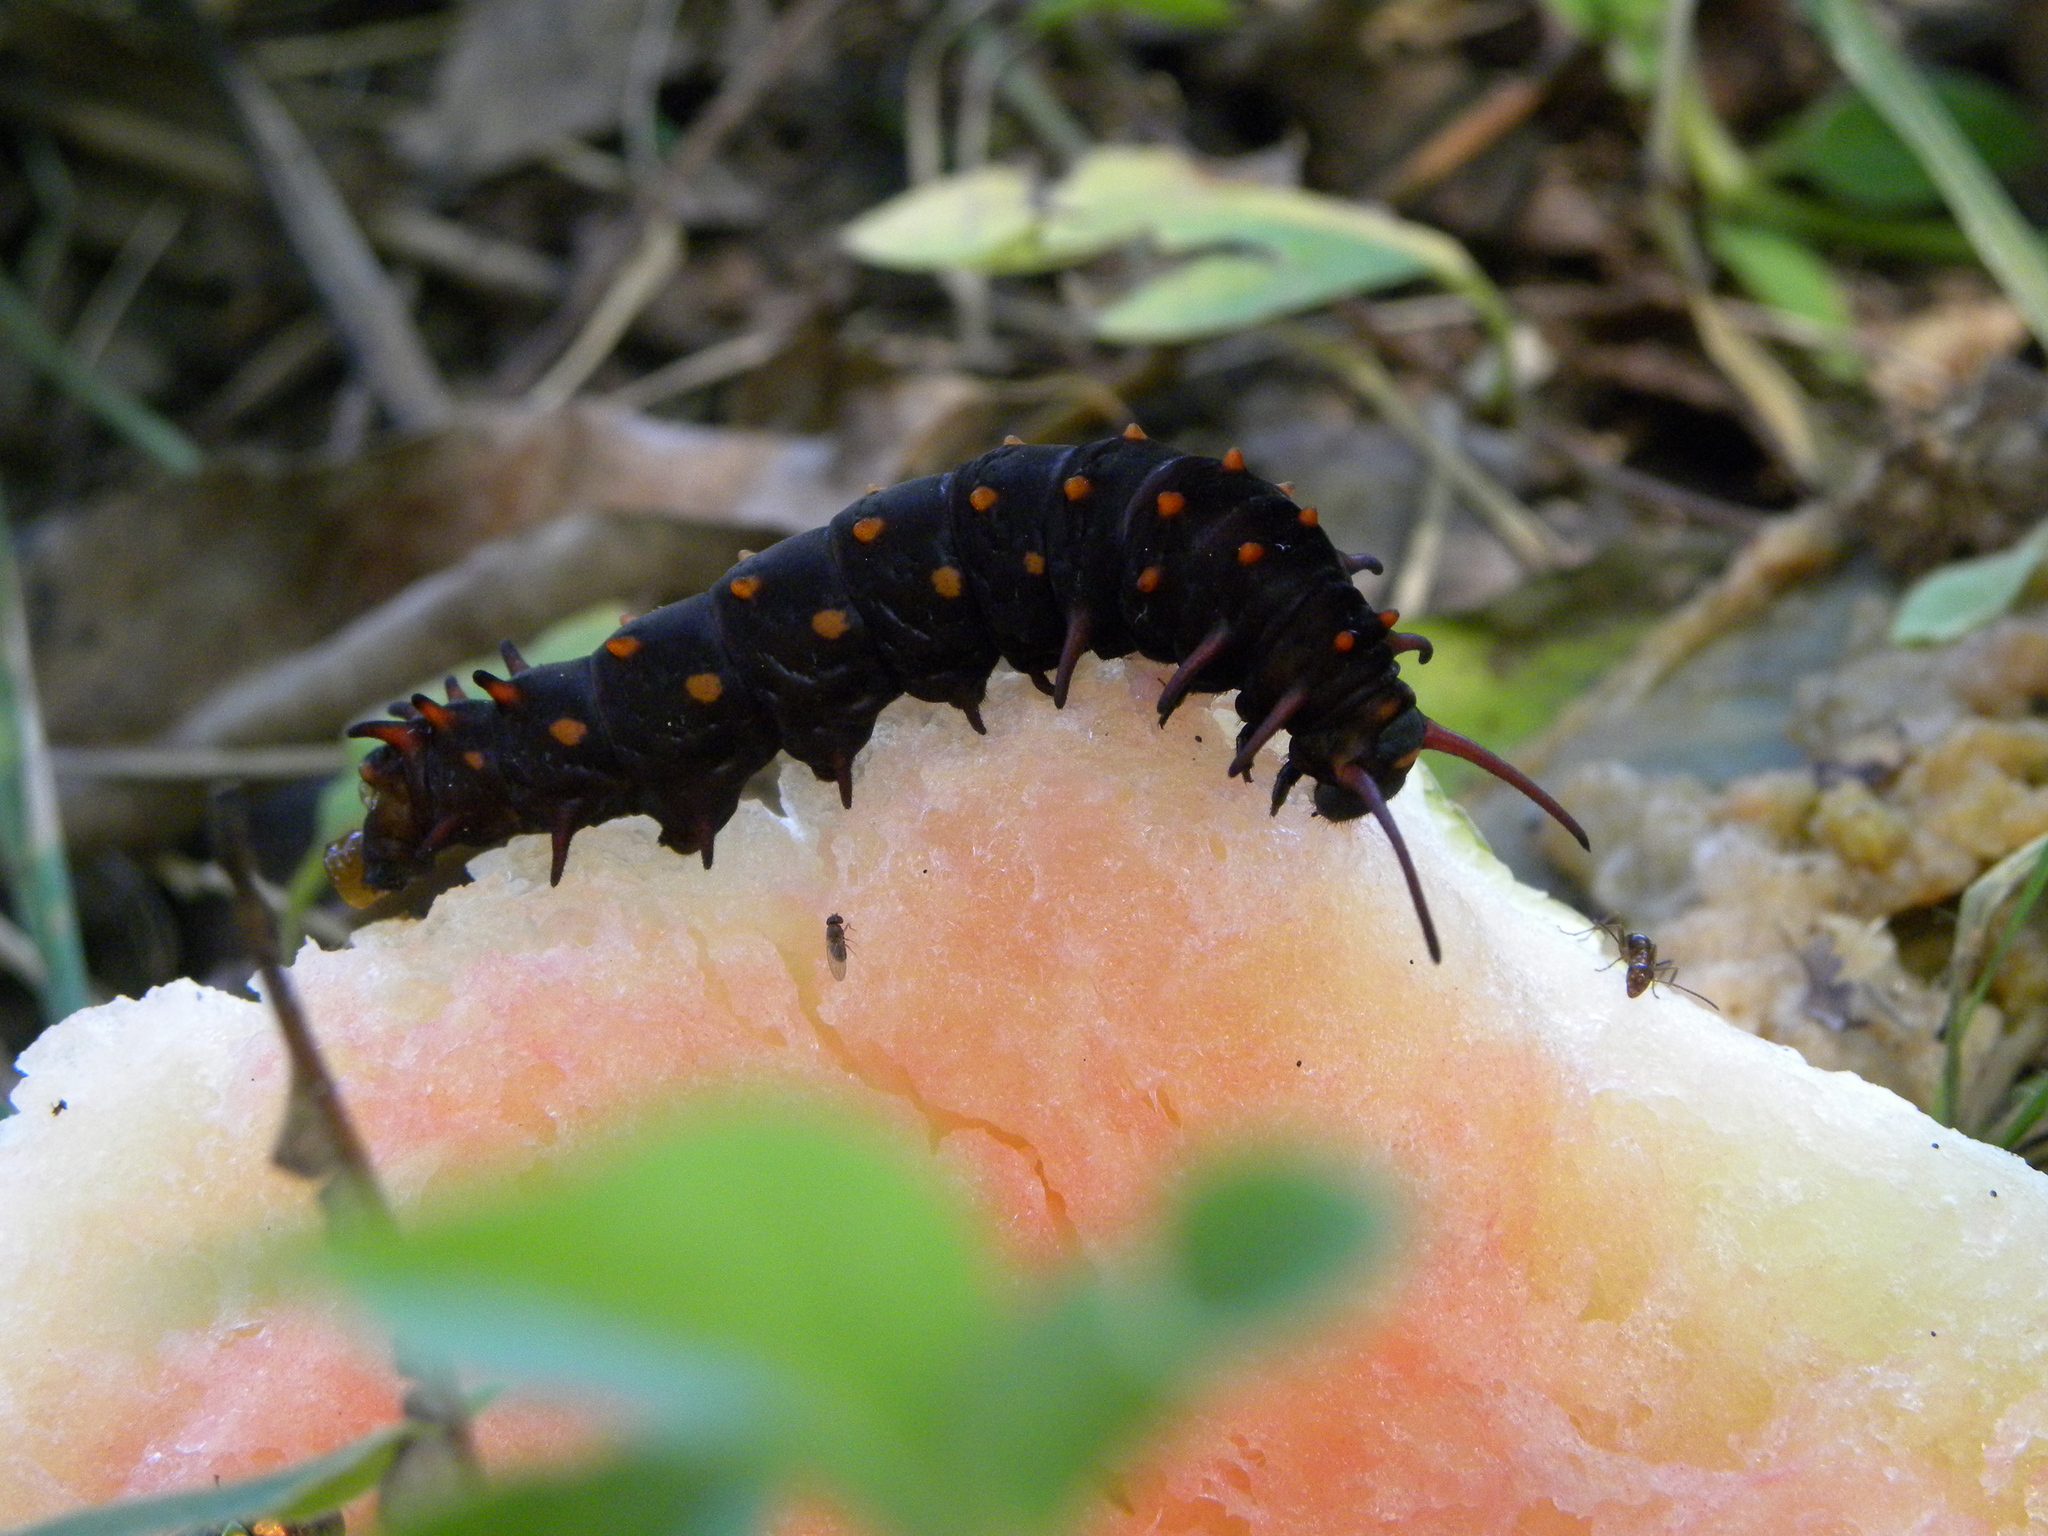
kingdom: Animalia
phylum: Arthropoda
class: Insecta
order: Lepidoptera
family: Papilionidae
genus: Battus
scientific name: Battus philenor
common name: Pipevine swallowtail
